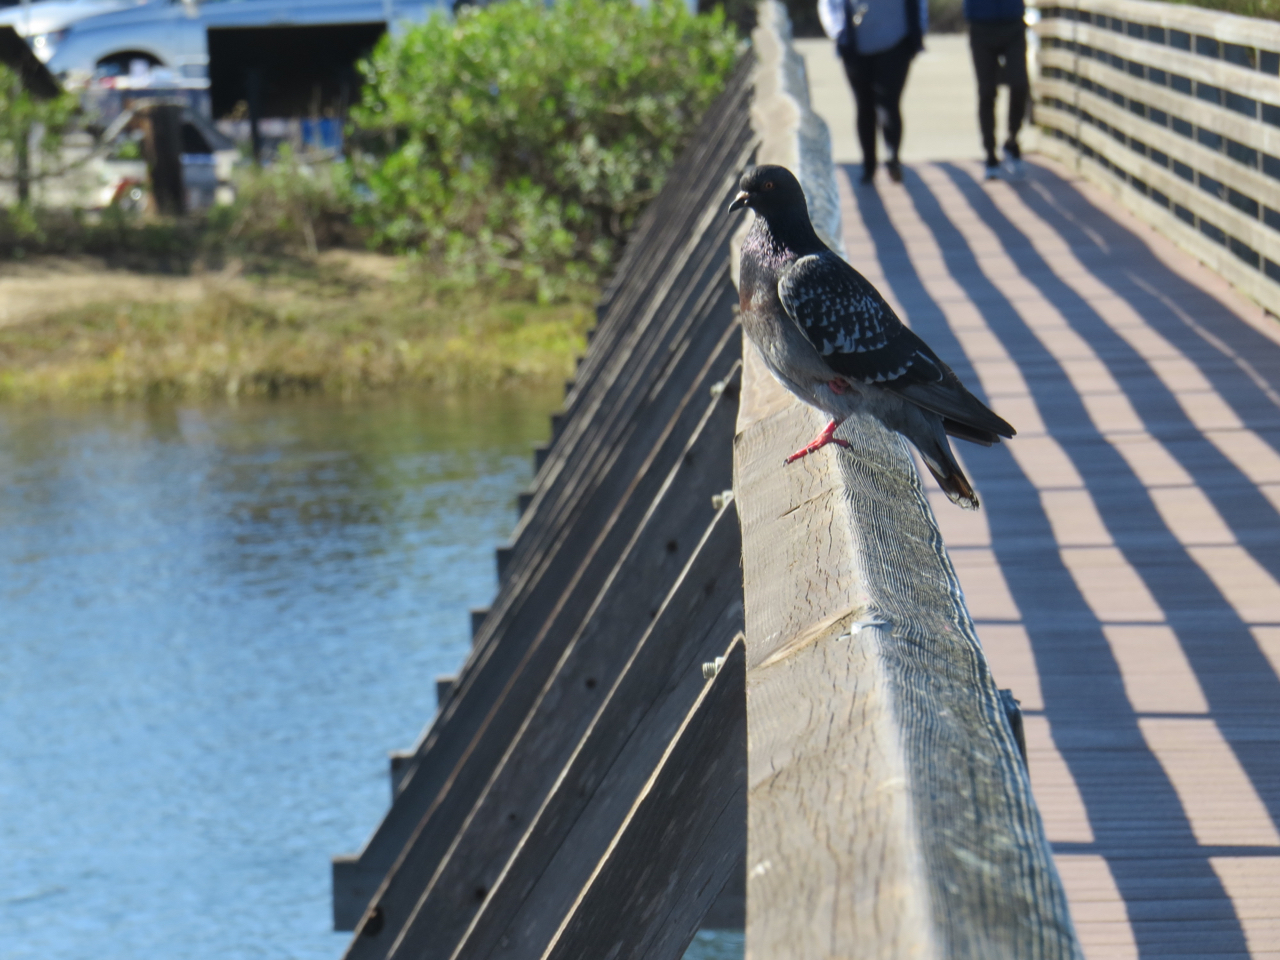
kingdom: Animalia
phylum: Chordata
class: Aves
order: Columbiformes
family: Columbidae
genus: Columba
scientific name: Columba livia
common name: Rock pigeon
